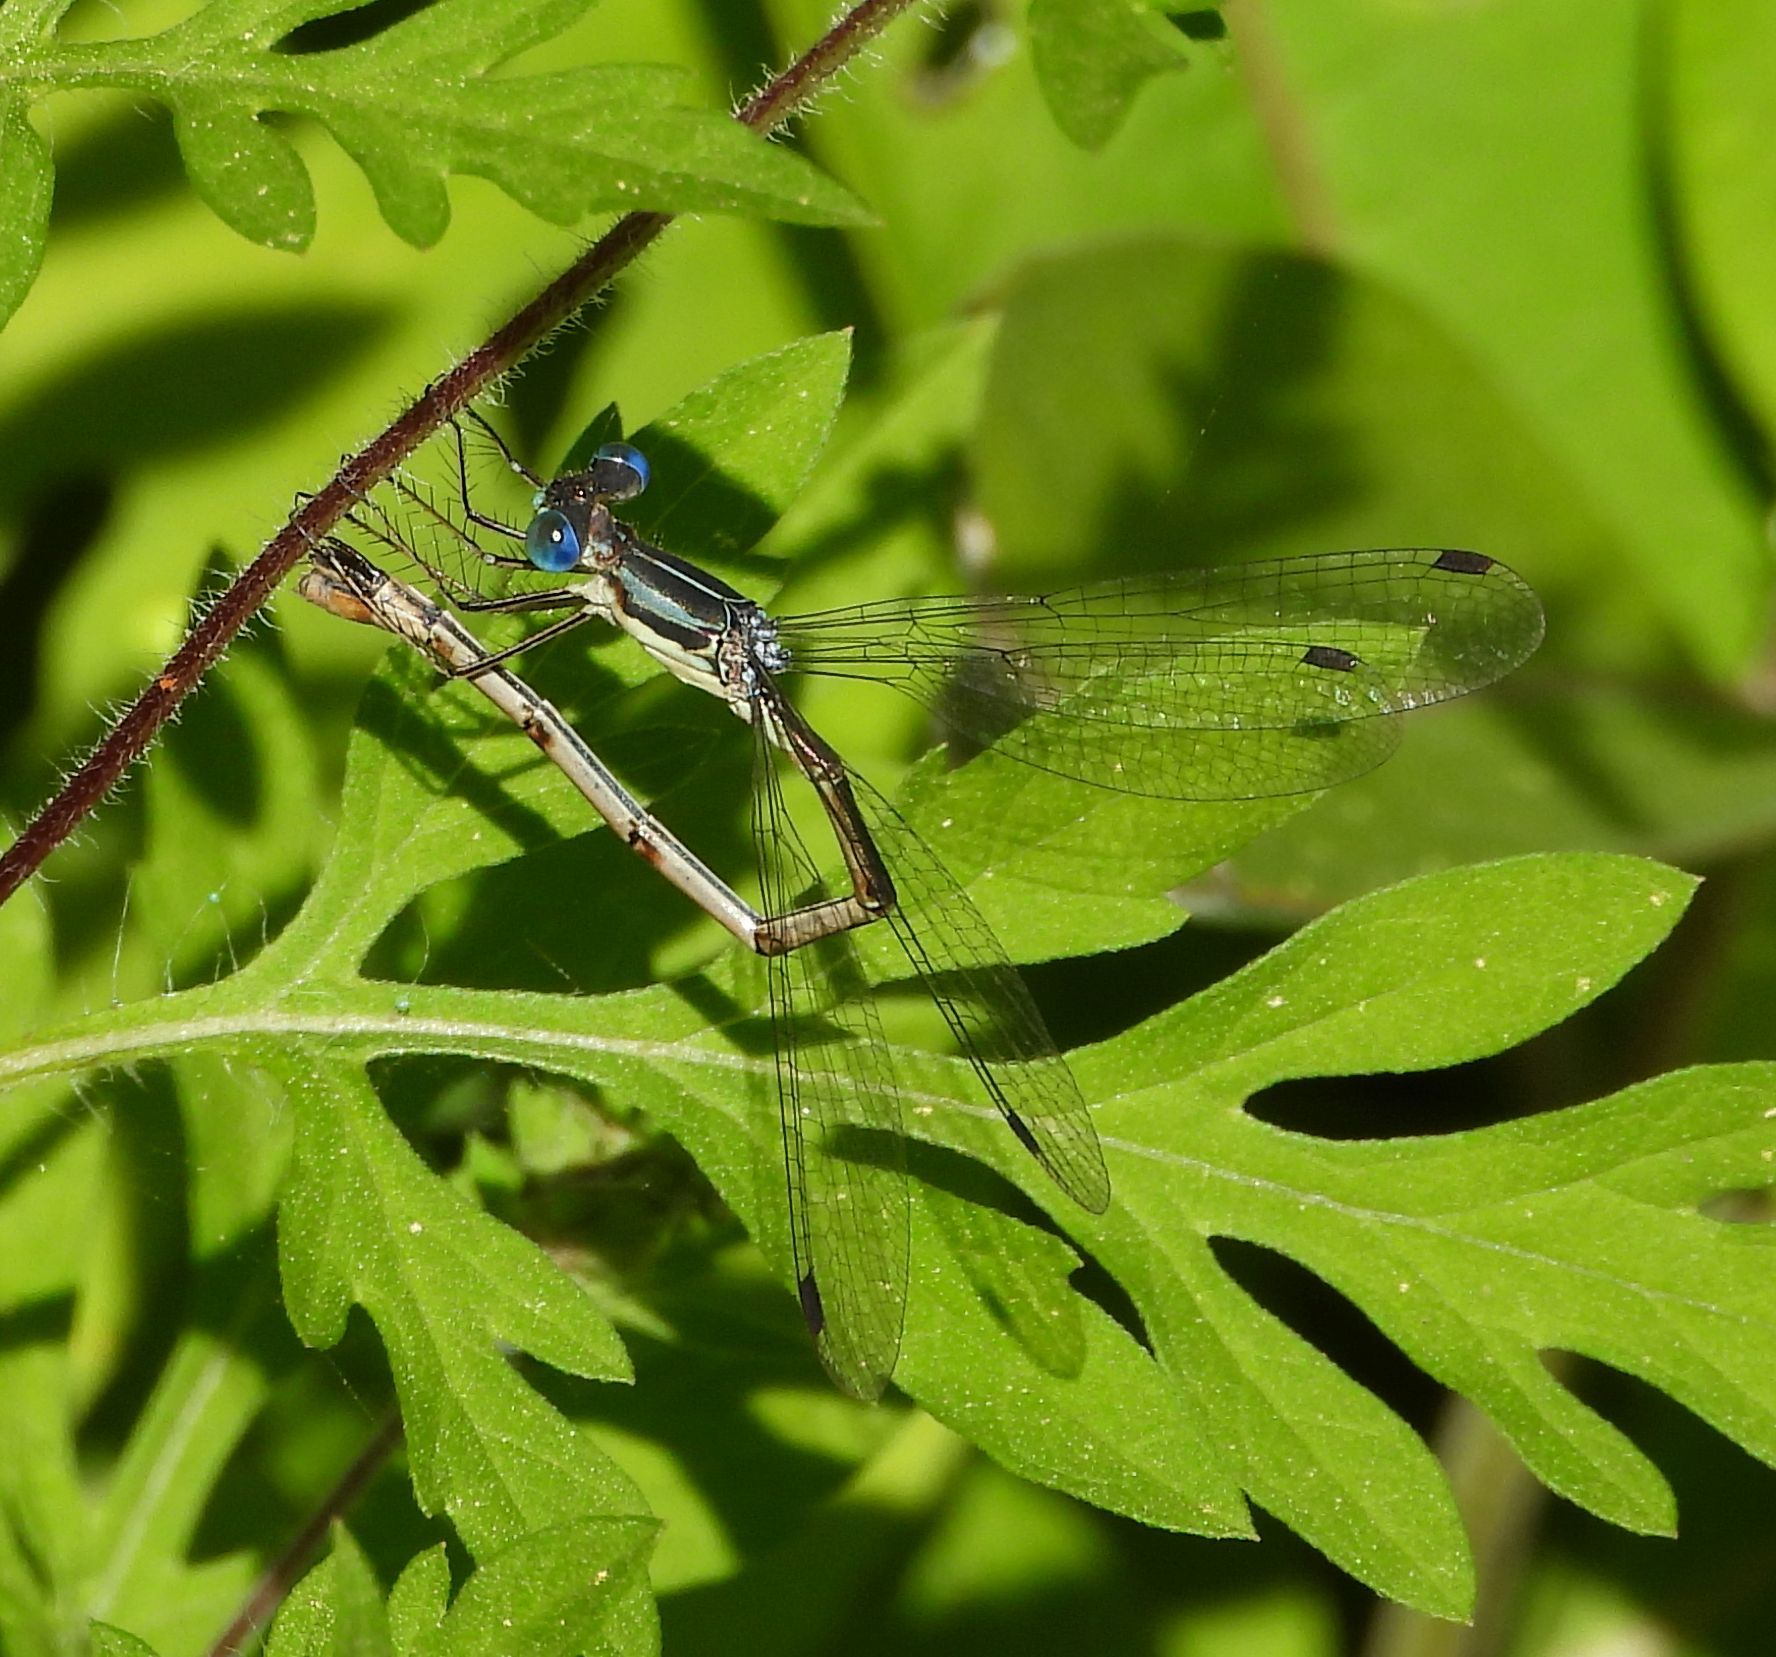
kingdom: Animalia
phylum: Arthropoda
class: Insecta
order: Odonata
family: Lestidae
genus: Lestes
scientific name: Lestes rectangularis
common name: Slender spreadwing
